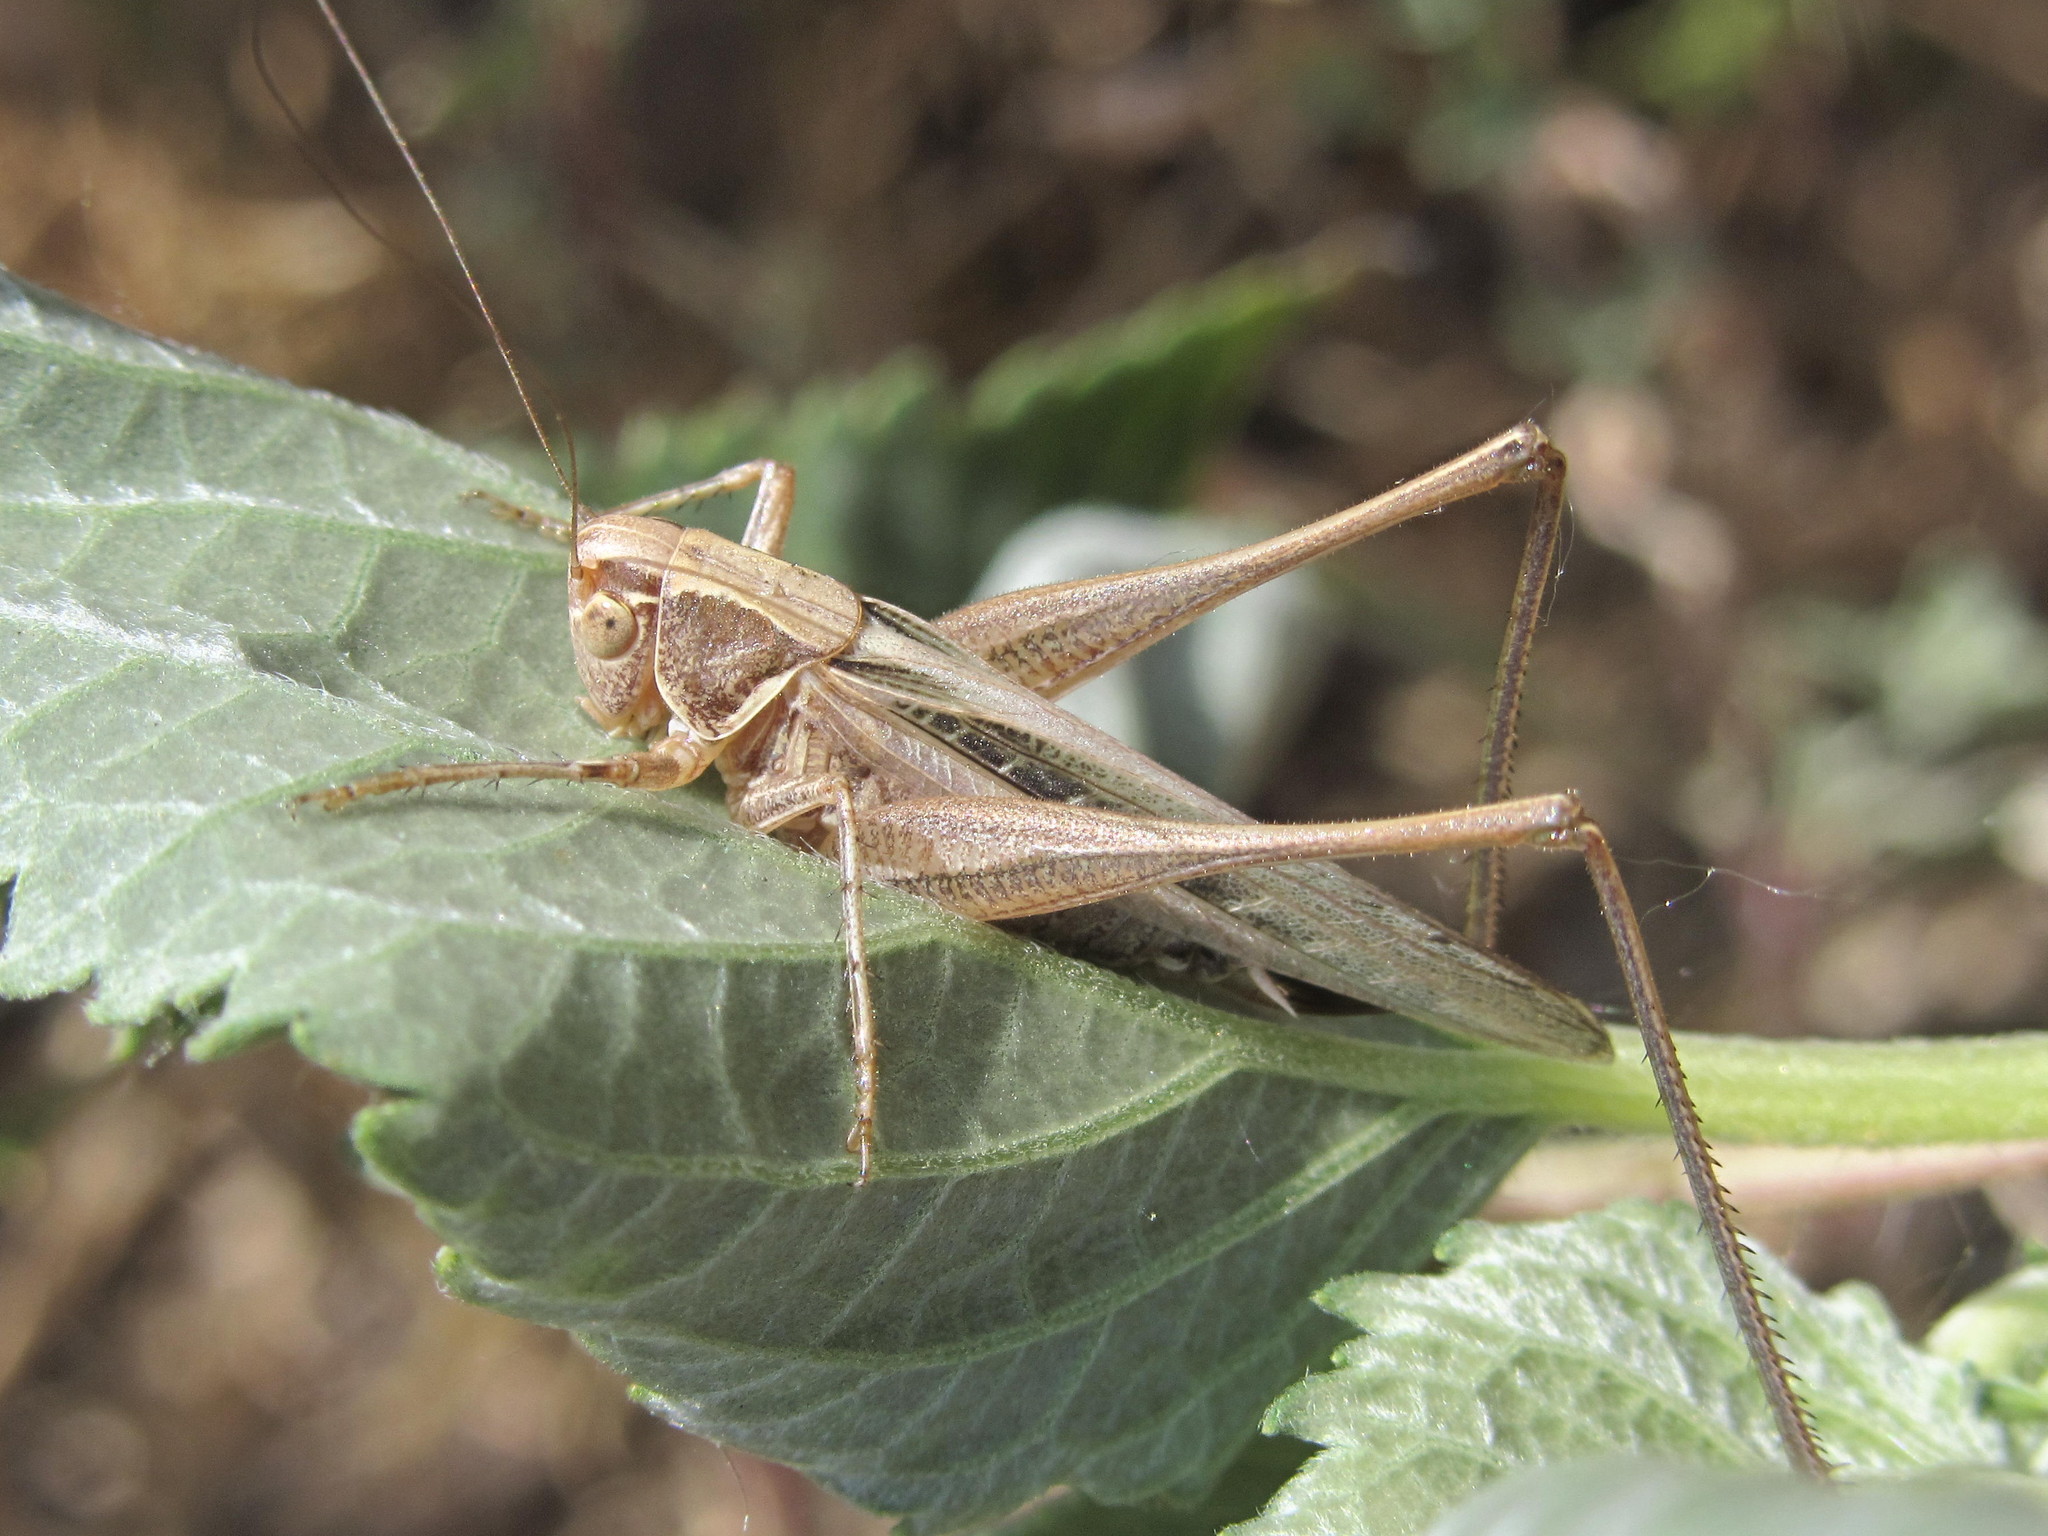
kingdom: Animalia
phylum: Arthropoda
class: Insecta
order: Orthoptera
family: Tettigoniidae
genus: Tessellana
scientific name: Tessellana tessellata
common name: Grasshopper
